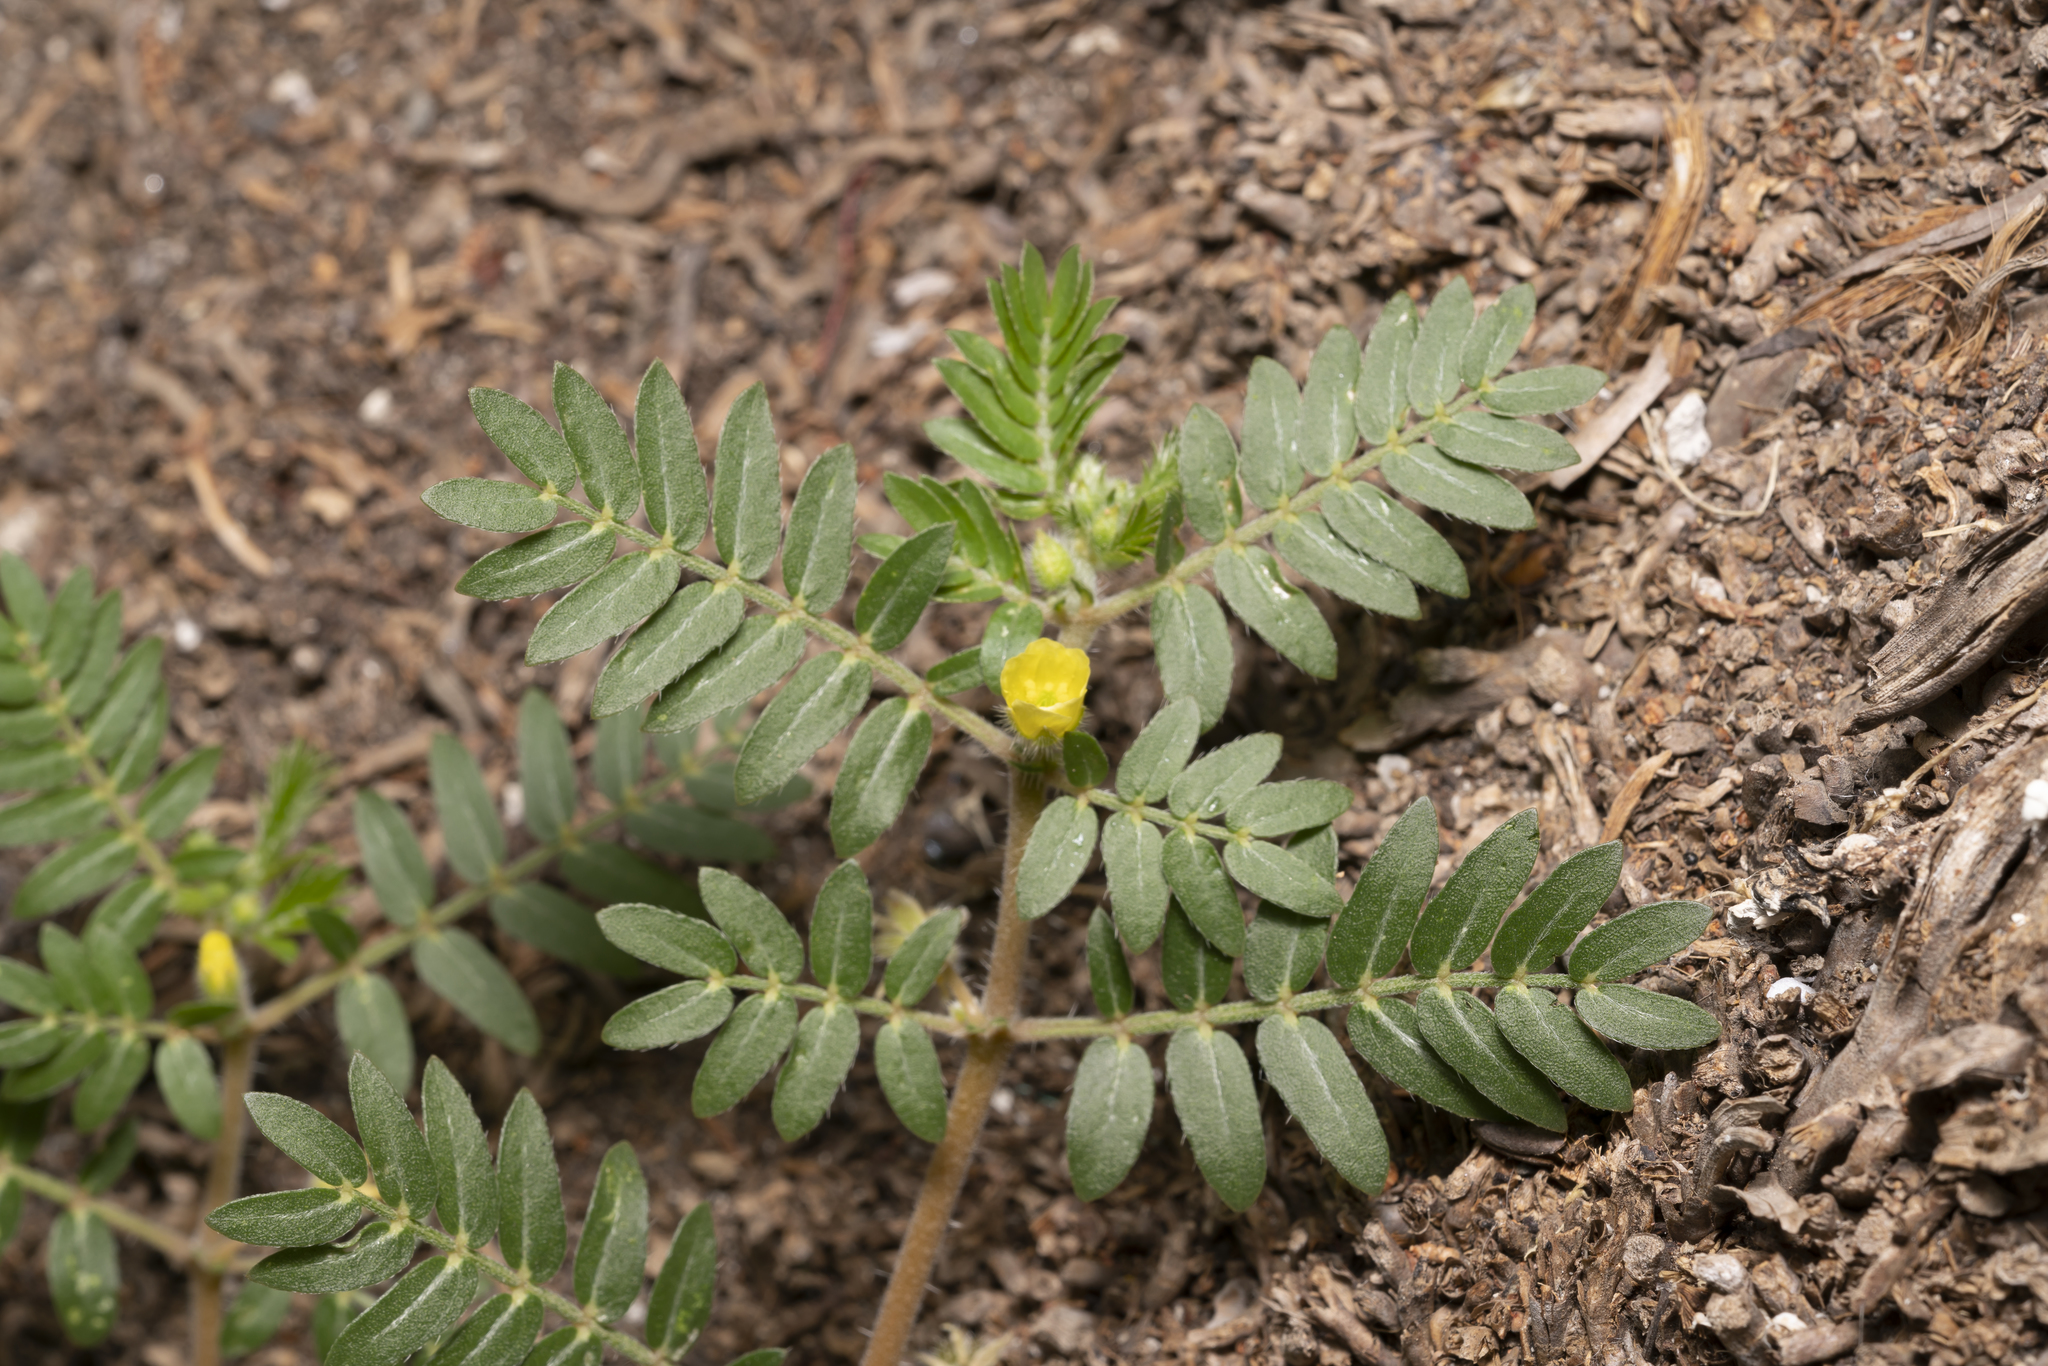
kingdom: Plantae
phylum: Tracheophyta
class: Magnoliopsida
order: Zygophyllales
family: Zygophyllaceae
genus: Tribulus
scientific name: Tribulus terrestris
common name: Puncturevine
